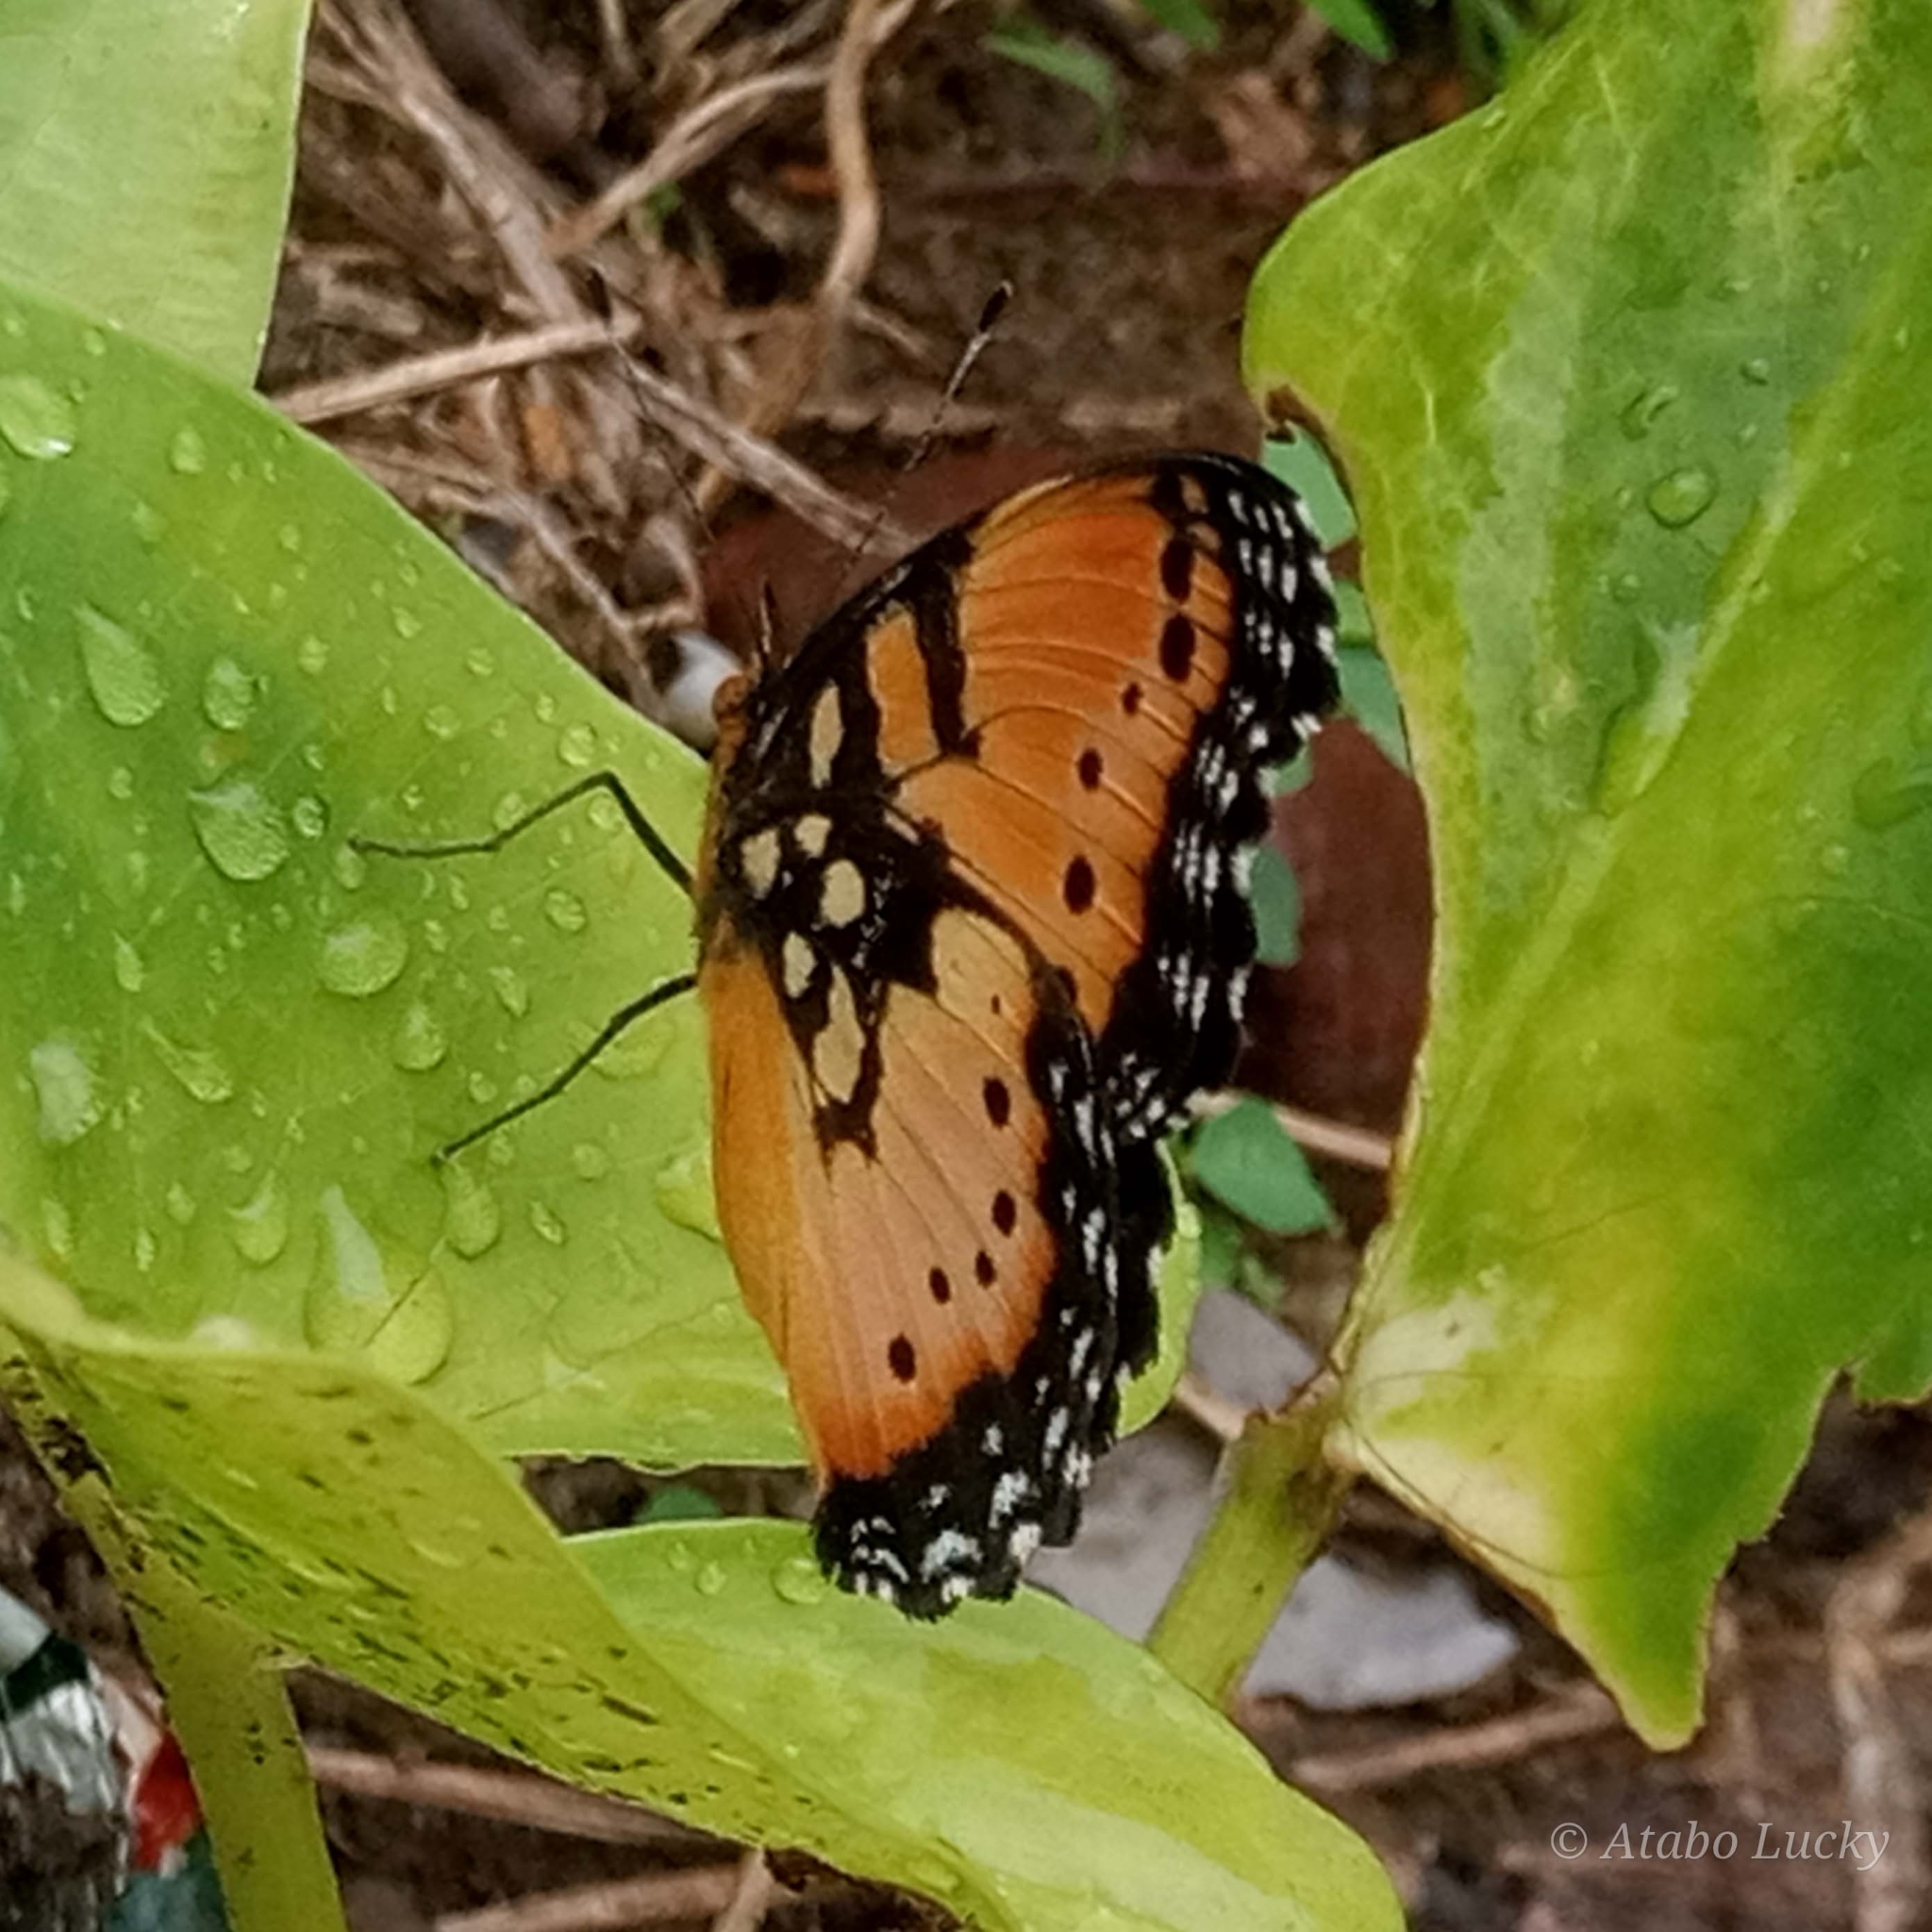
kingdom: Animalia
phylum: Arthropoda
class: Insecta
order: Lepidoptera
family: Nymphalidae
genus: Precis
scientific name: Precis octavia
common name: Gaudy commodore
